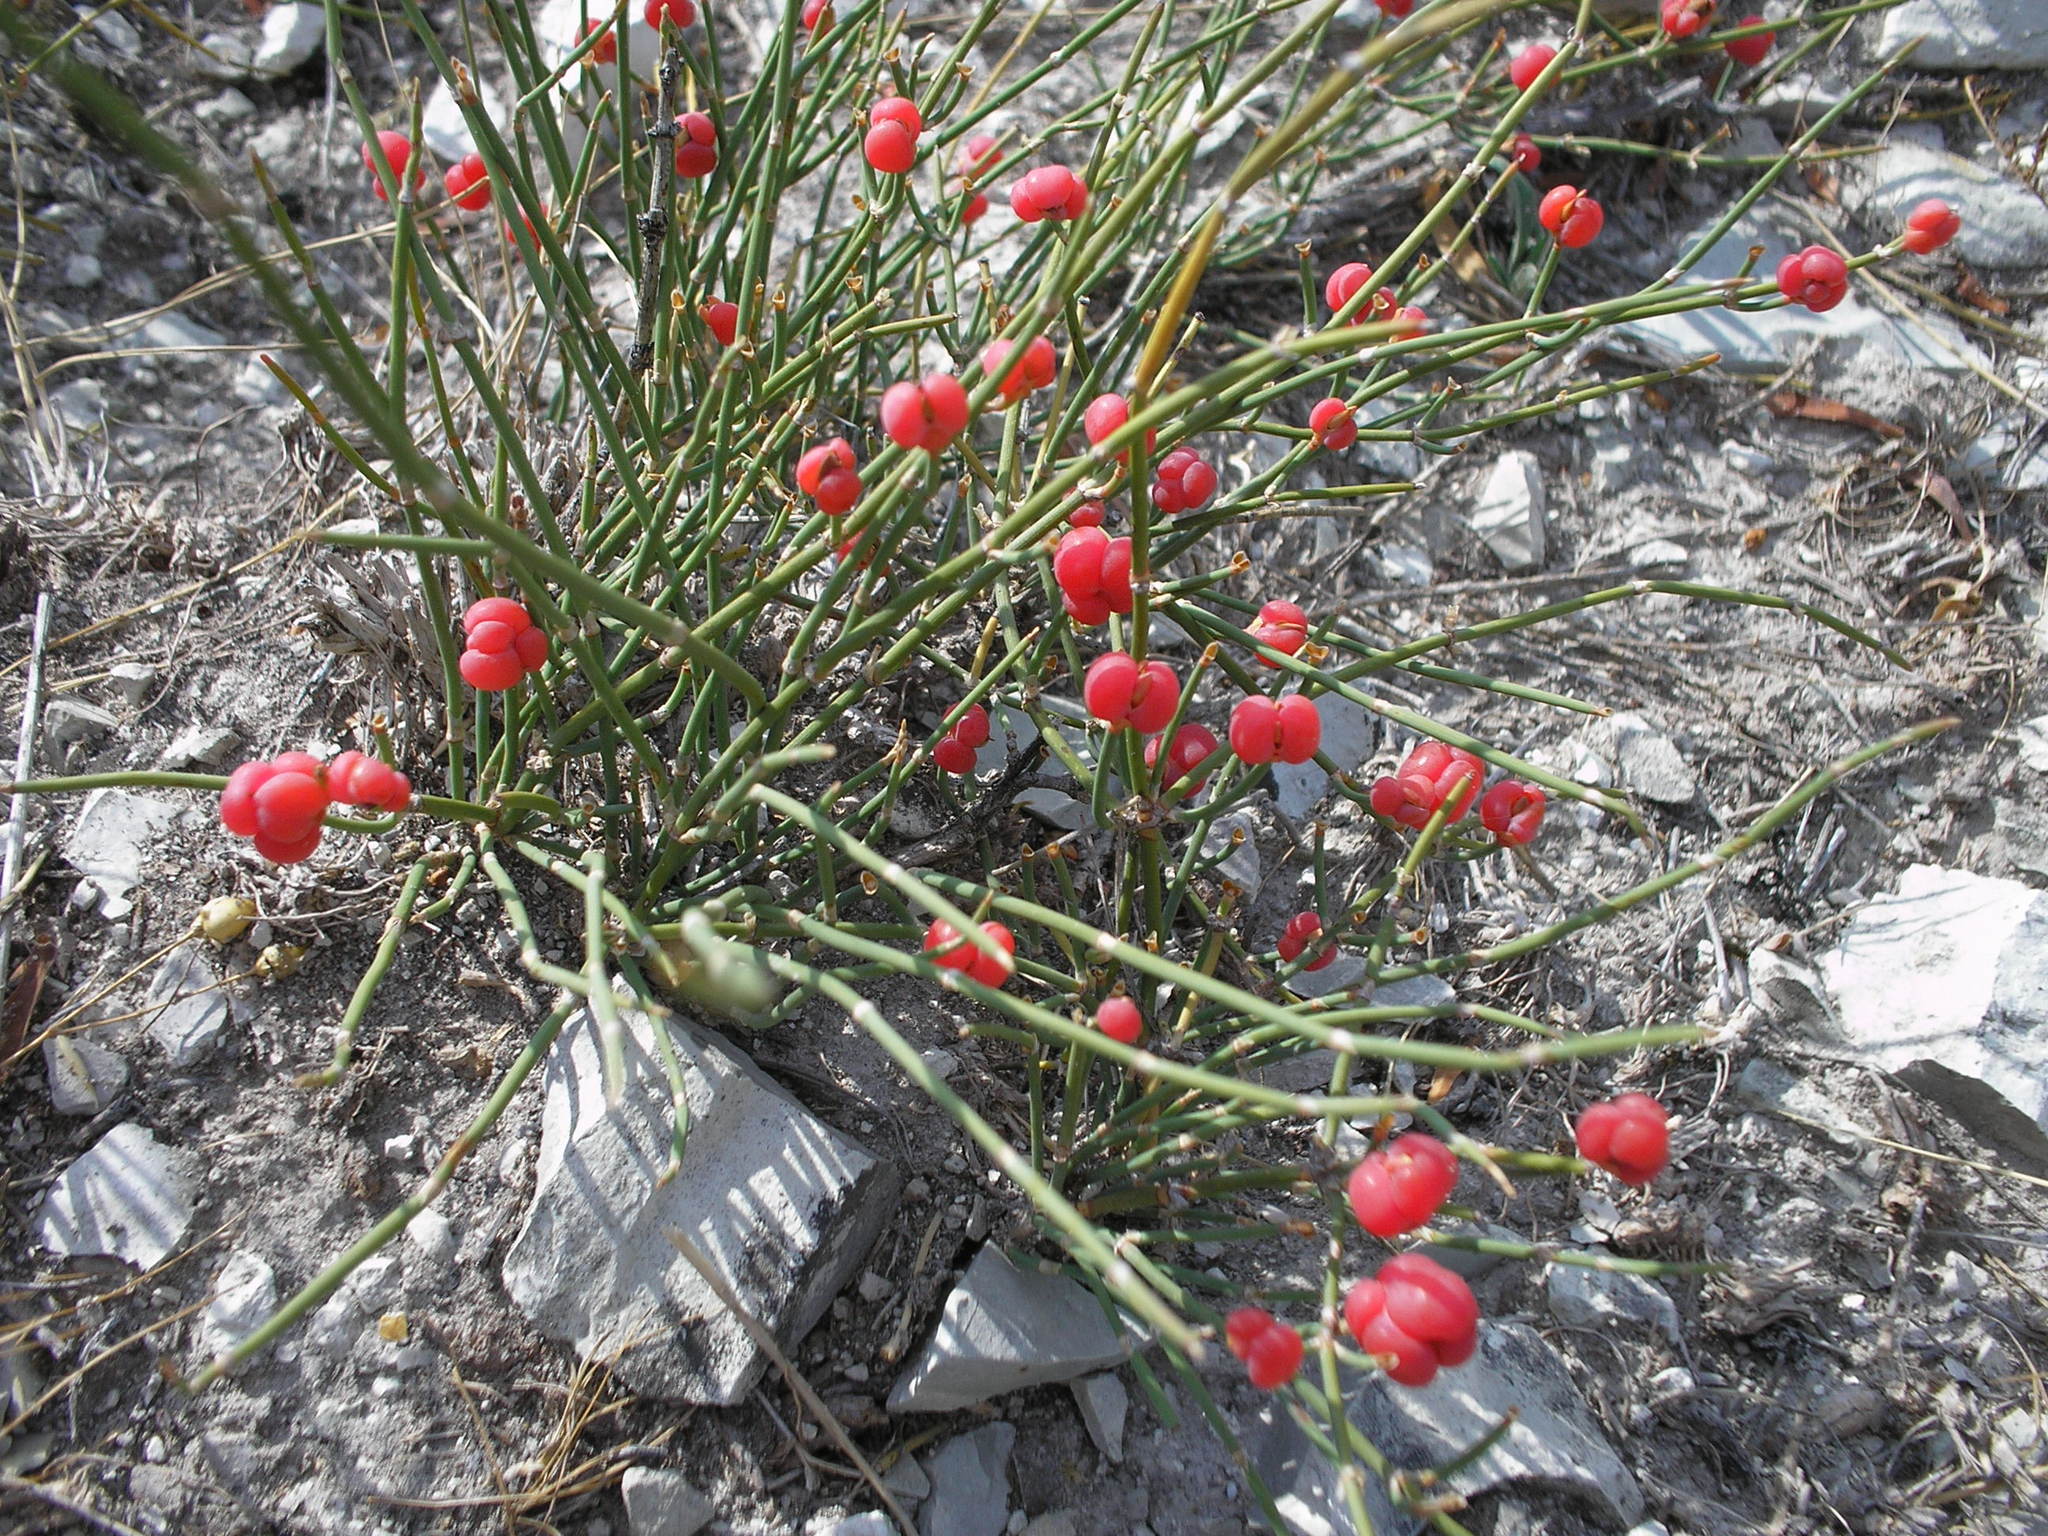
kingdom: Plantae
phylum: Tracheophyta
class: Gnetopsida
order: Ephedrales
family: Ephedraceae
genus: Ephedra
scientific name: Ephedra distachya
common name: Sea grape
